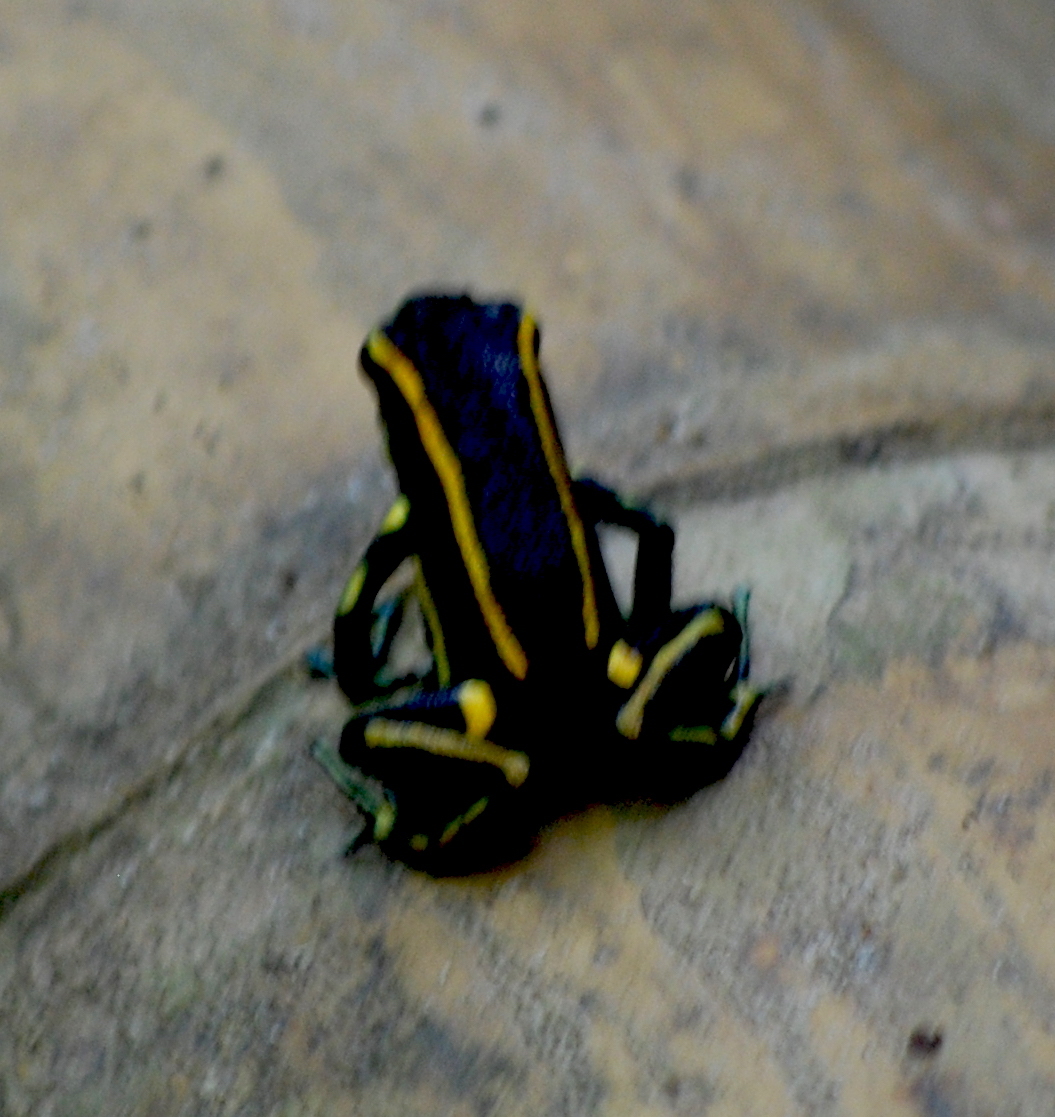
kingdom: Animalia
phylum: Chordata
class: Amphibia
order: Anura
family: Dendrobatidae
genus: Dendrobates
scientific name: Dendrobates truncatus
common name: Yellow-striped poison frog
